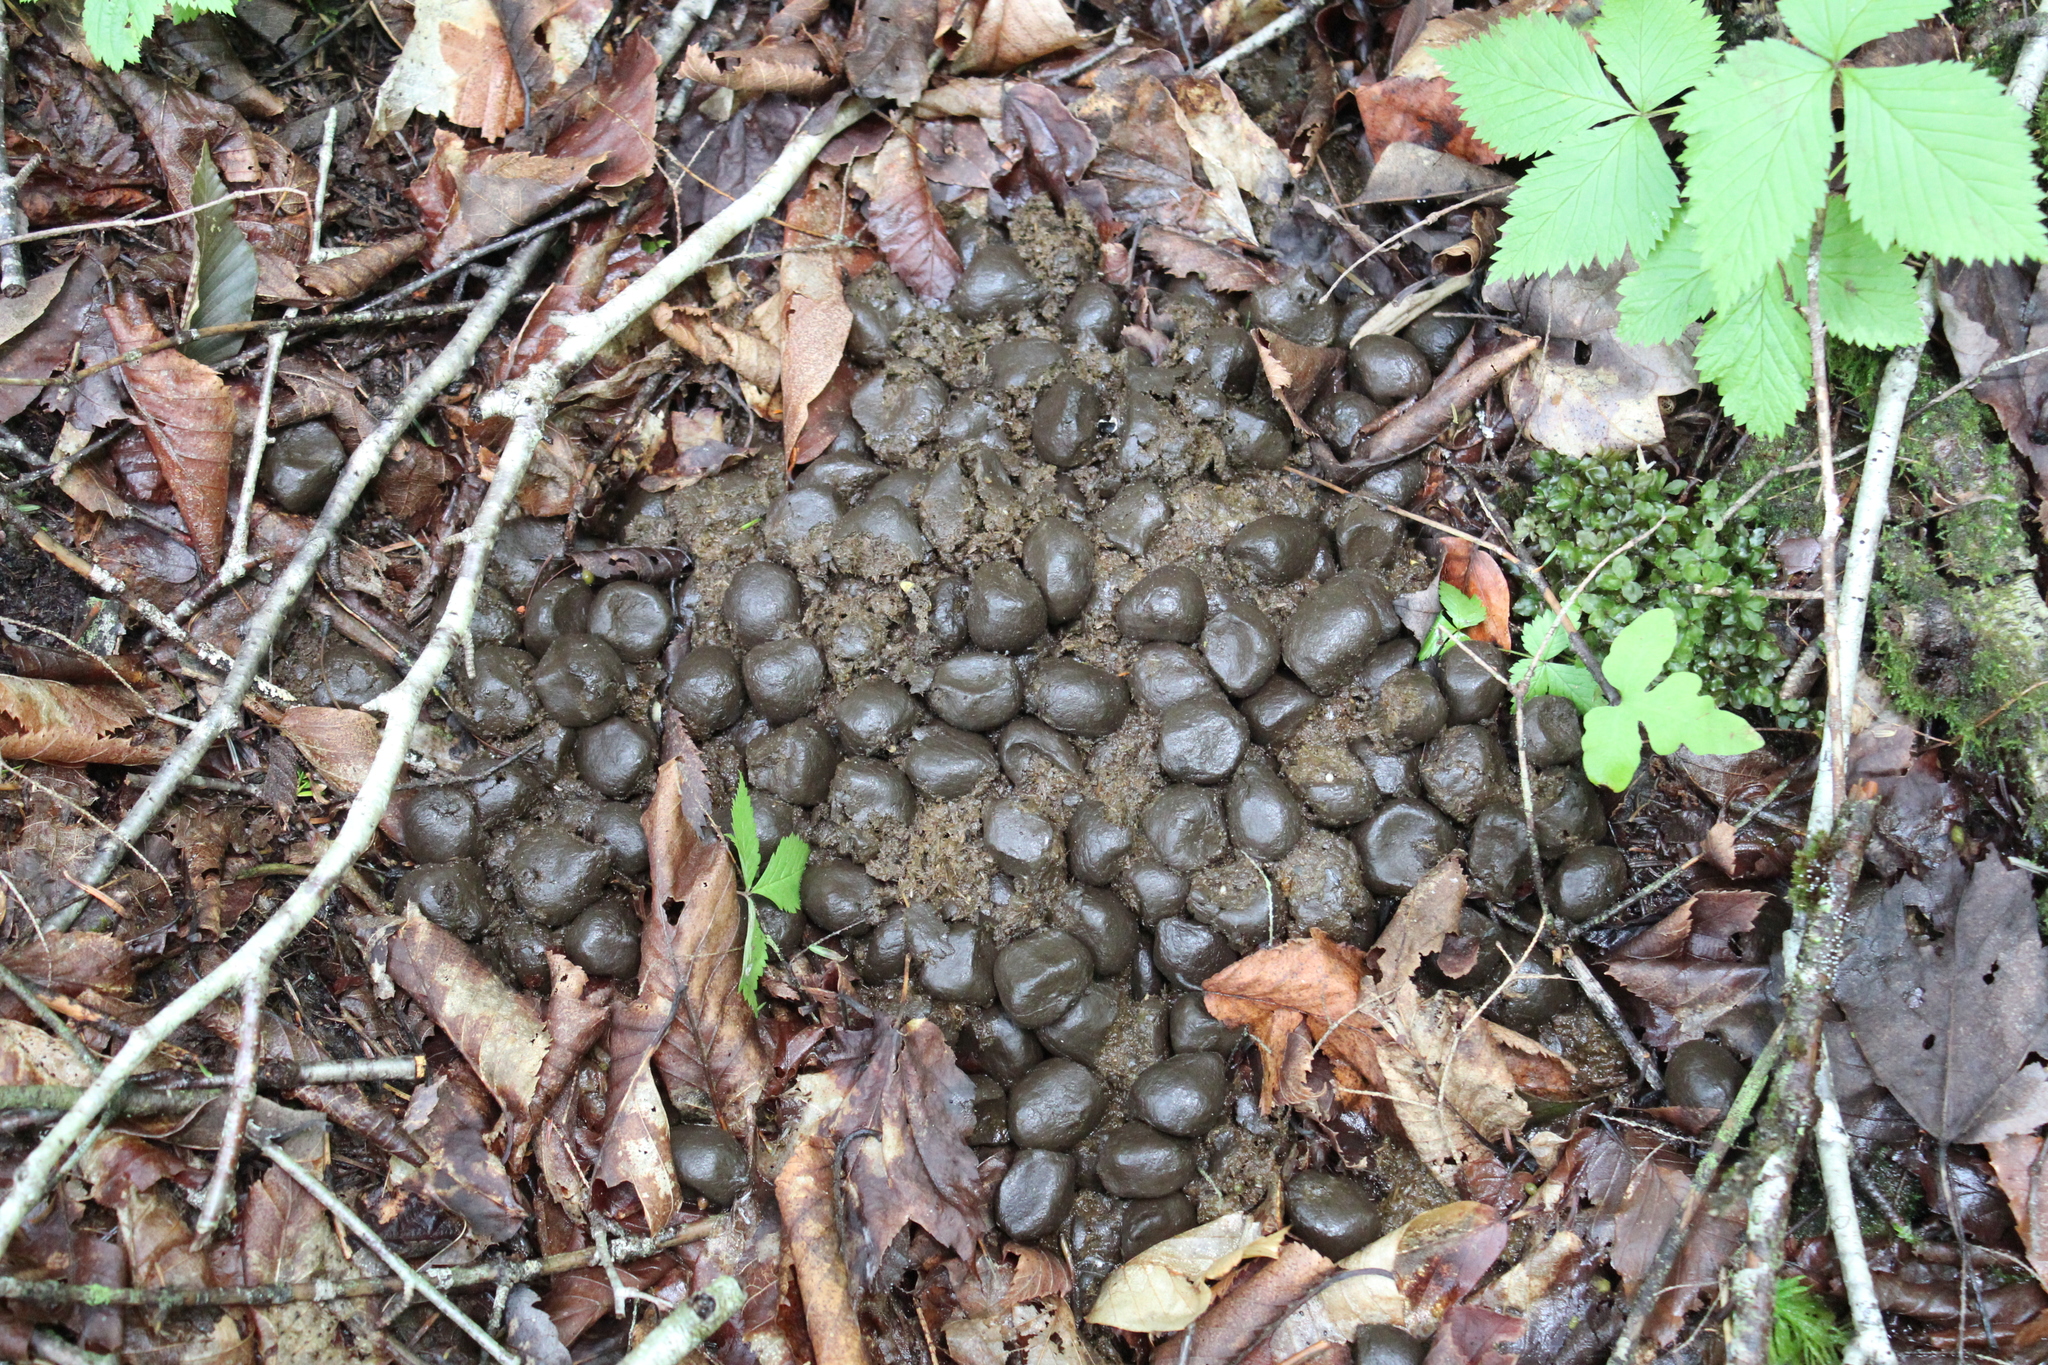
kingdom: Animalia
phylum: Chordata
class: Mammalia
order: Artiodactyla
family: Cervidae
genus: Alces
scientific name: Alces alces
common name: Moose
